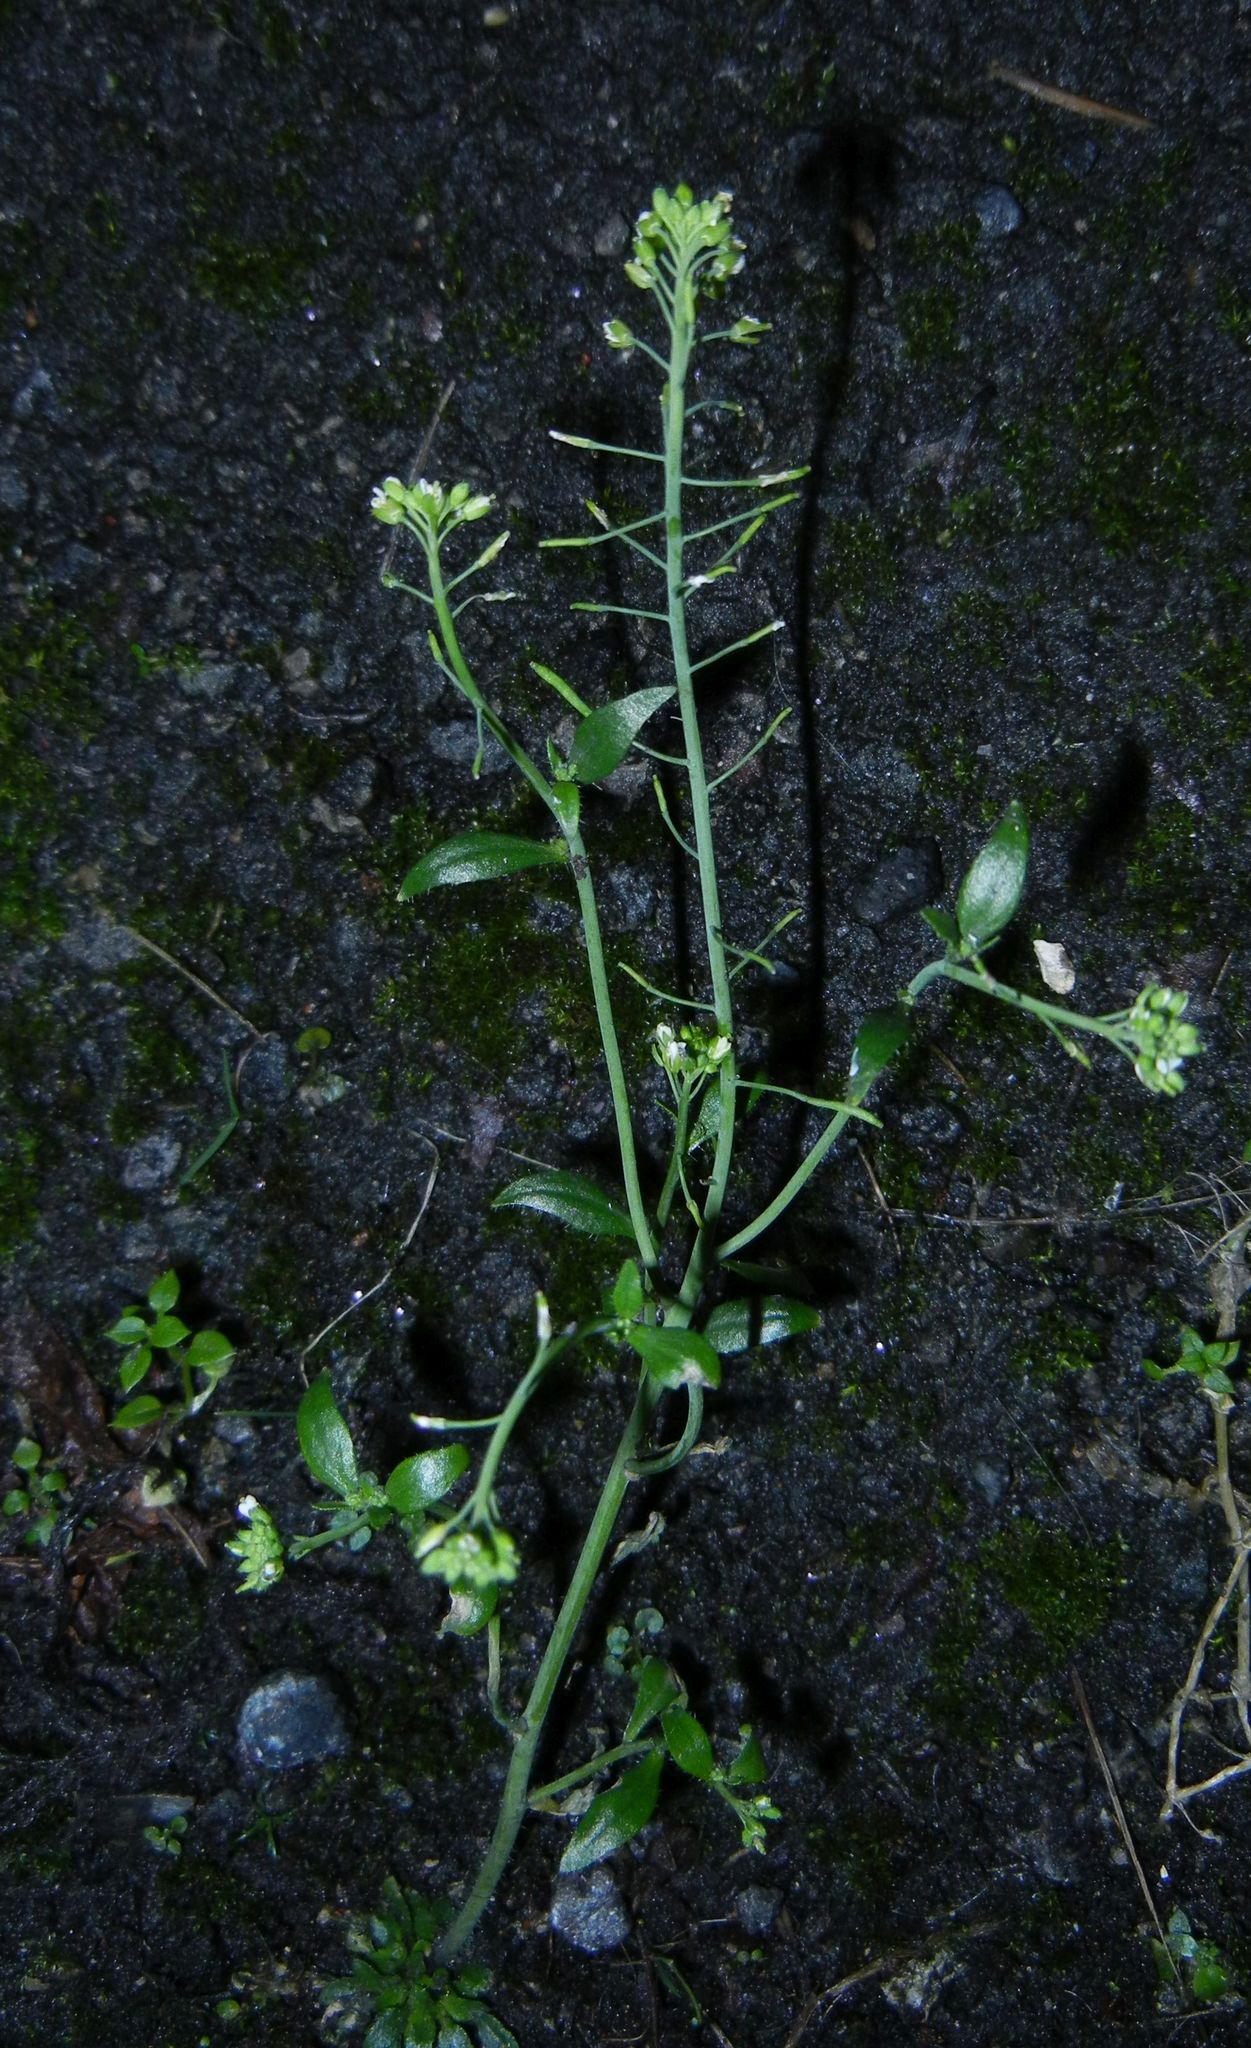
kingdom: Plantae
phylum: Tracheophyta
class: Magnoliopsida
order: Brassicales
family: Brassicaceae
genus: Arabidopsis
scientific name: Arabidopsis thaliana
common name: Thale cress
